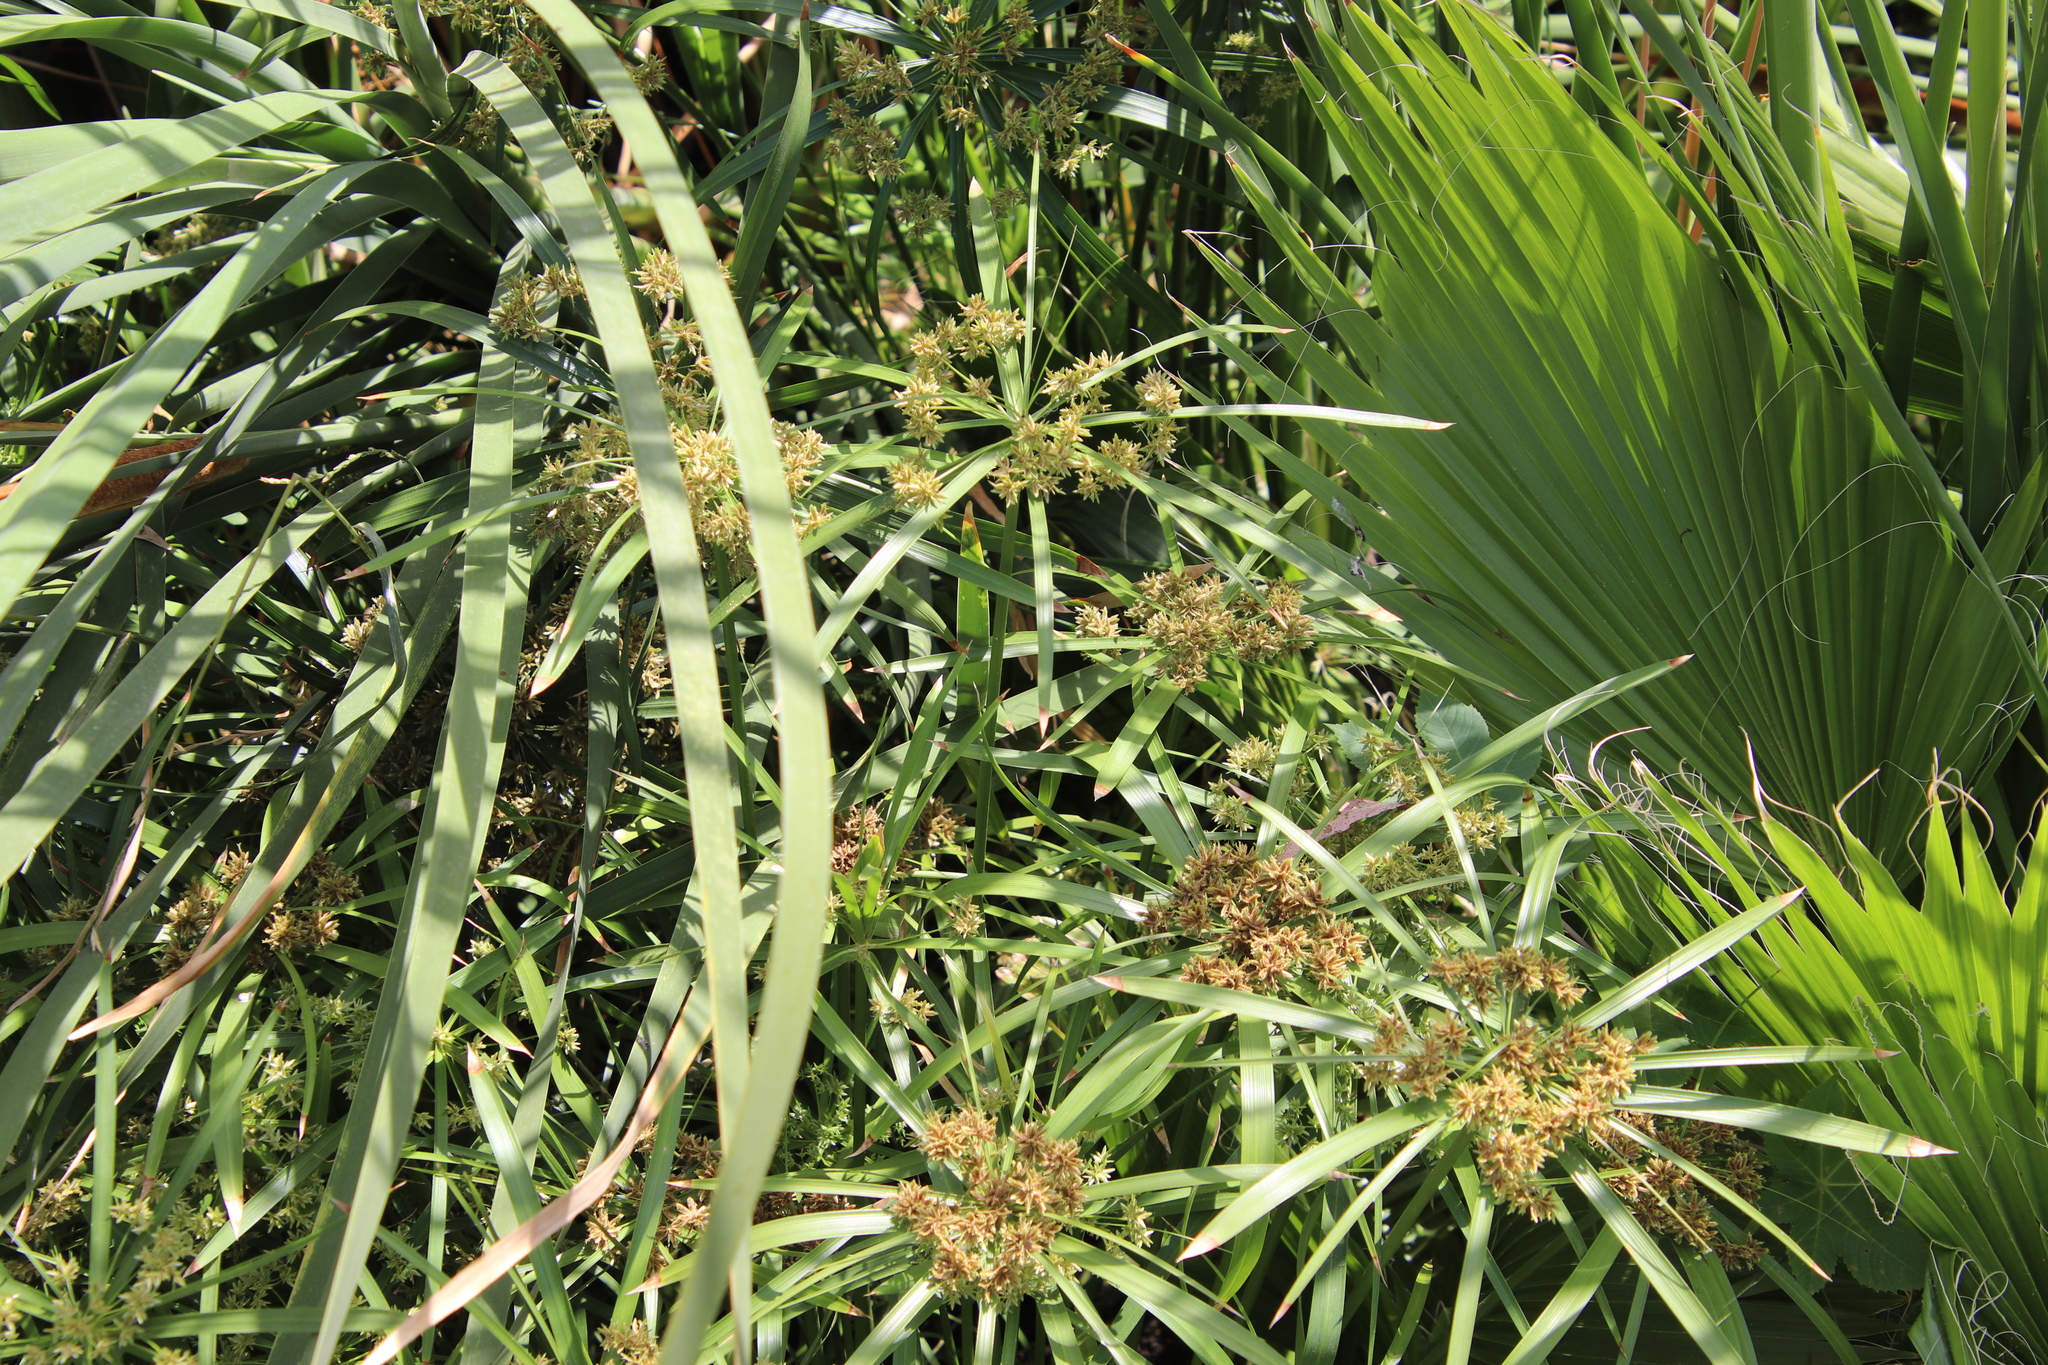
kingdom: Plantae
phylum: Tracheophyta
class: Liliopsida
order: Poales
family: Cyperaceae
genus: Cyperus
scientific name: Cyperus alternifolius
